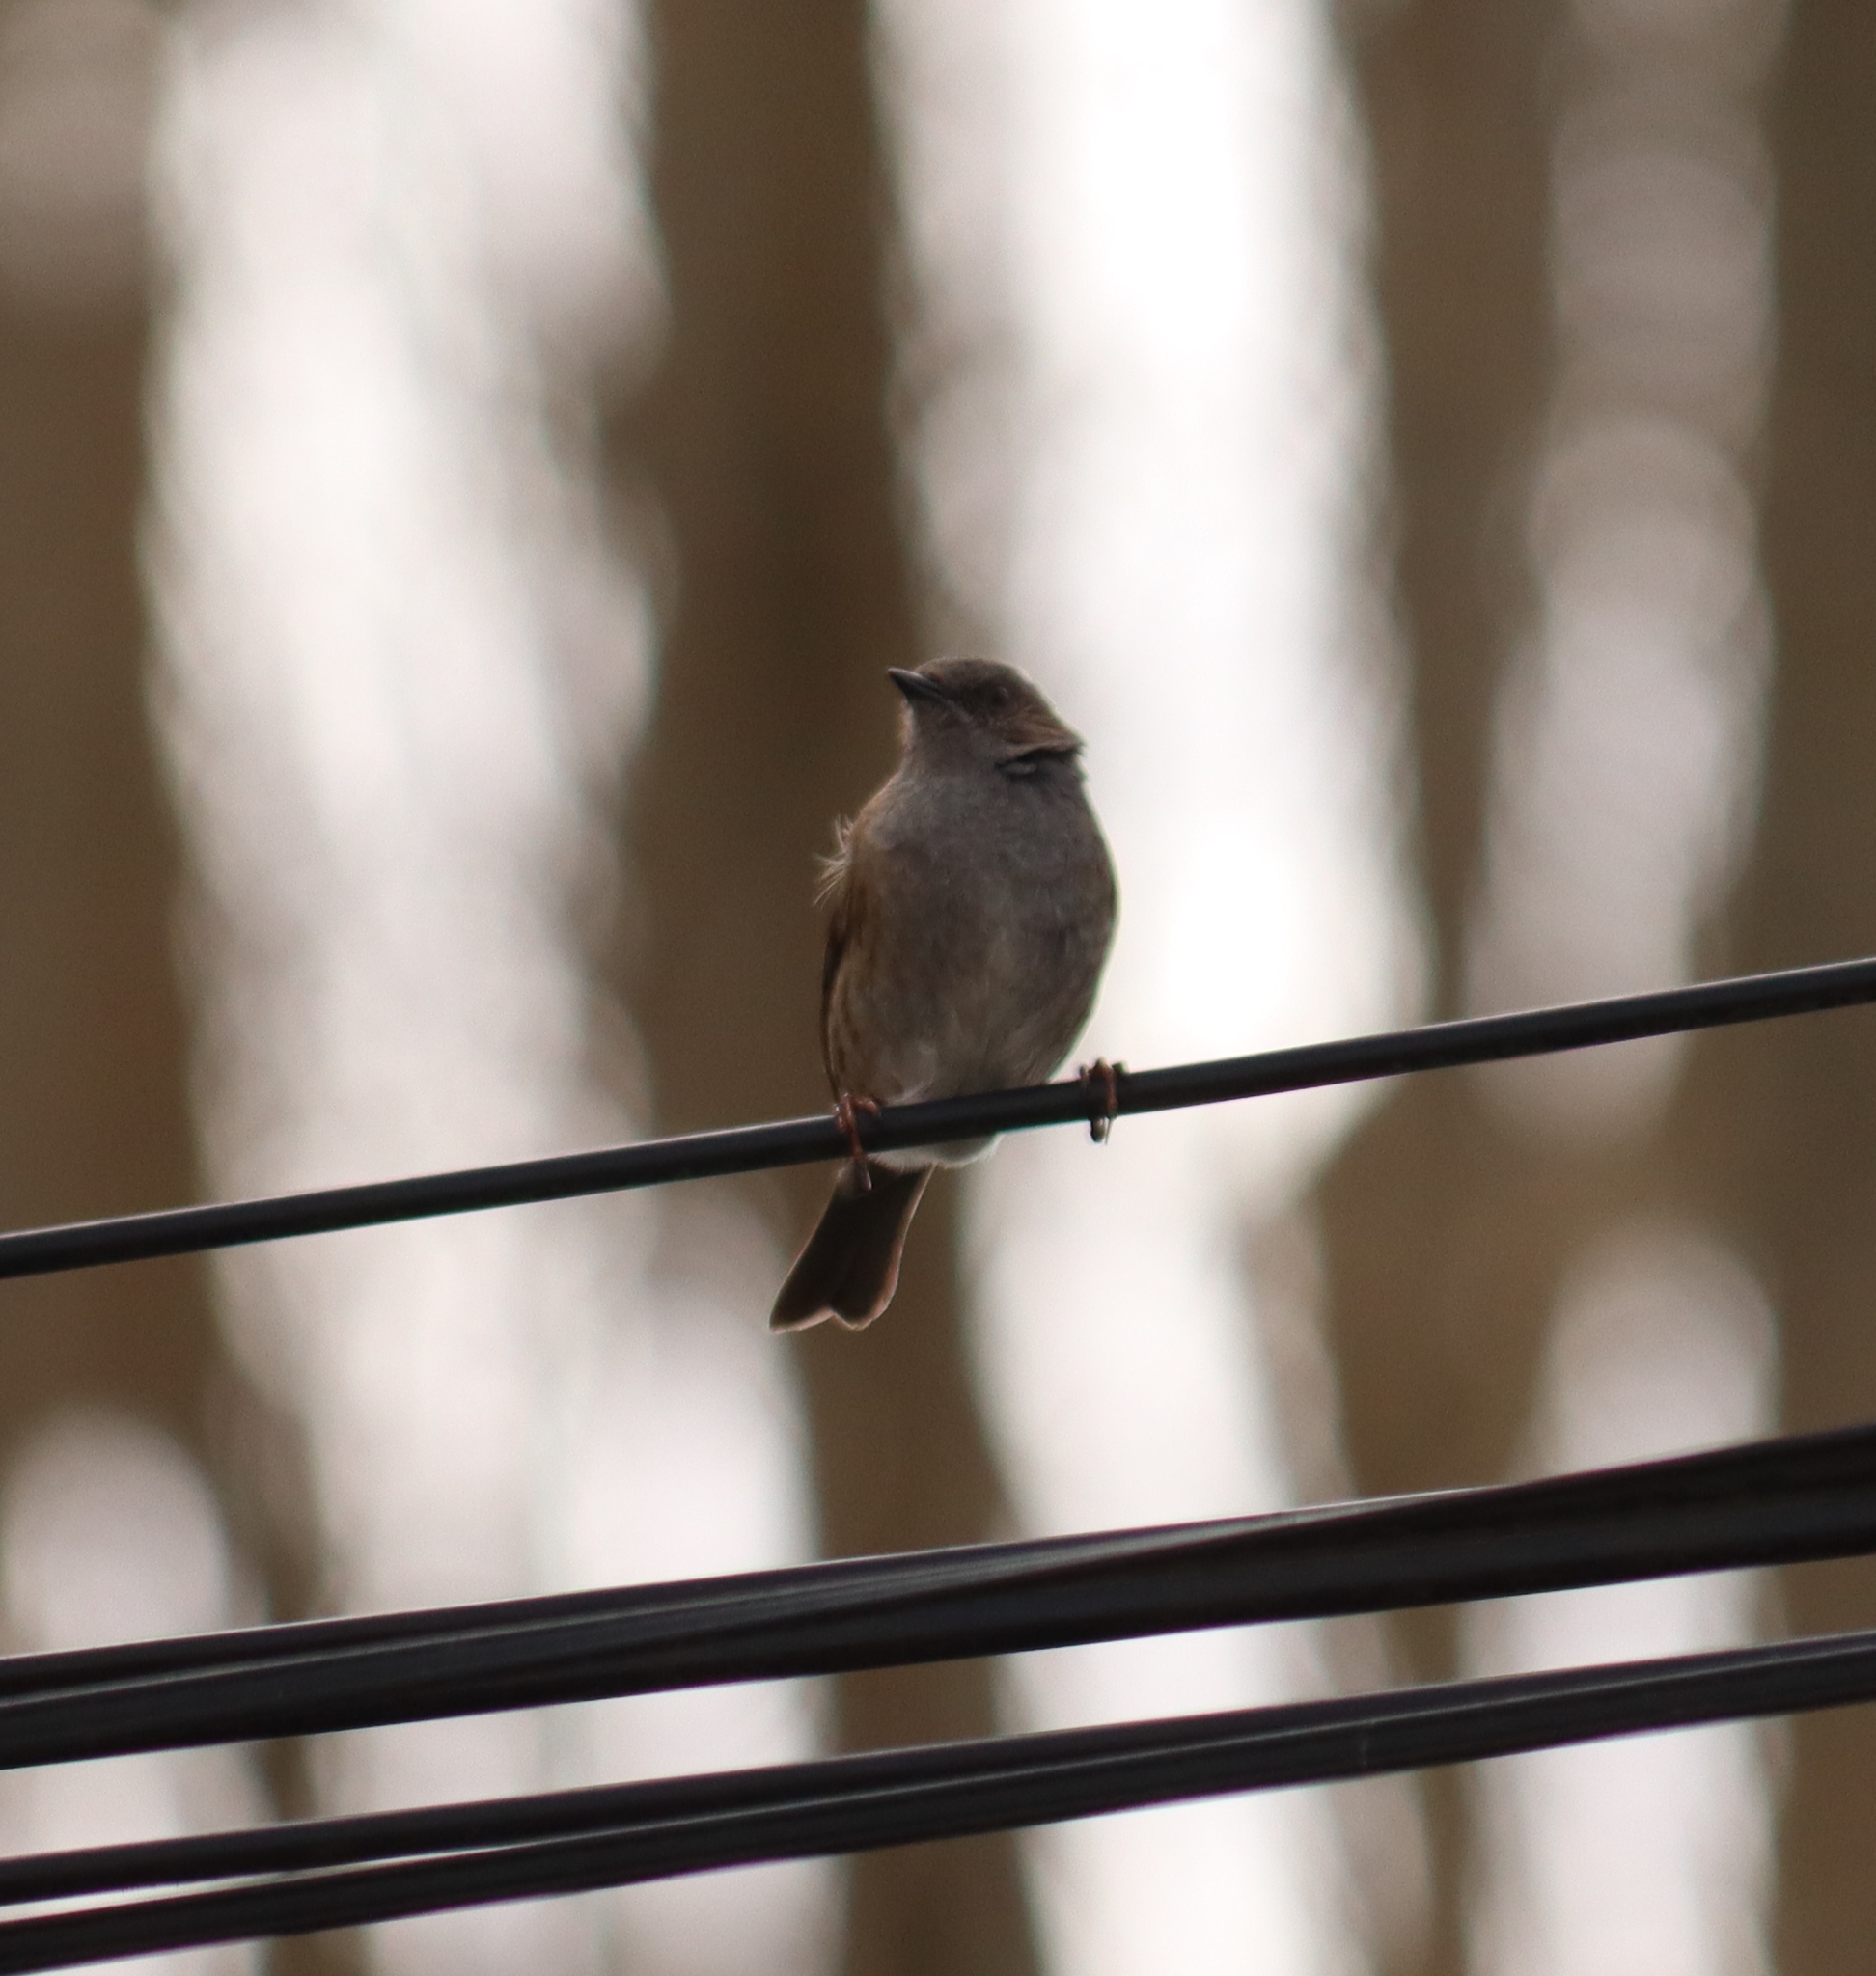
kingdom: Animalia
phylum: Chordata
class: Aves
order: Passeriformes
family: Prunellidae
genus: Prunella
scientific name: Prunella modularis
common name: Dunnock
